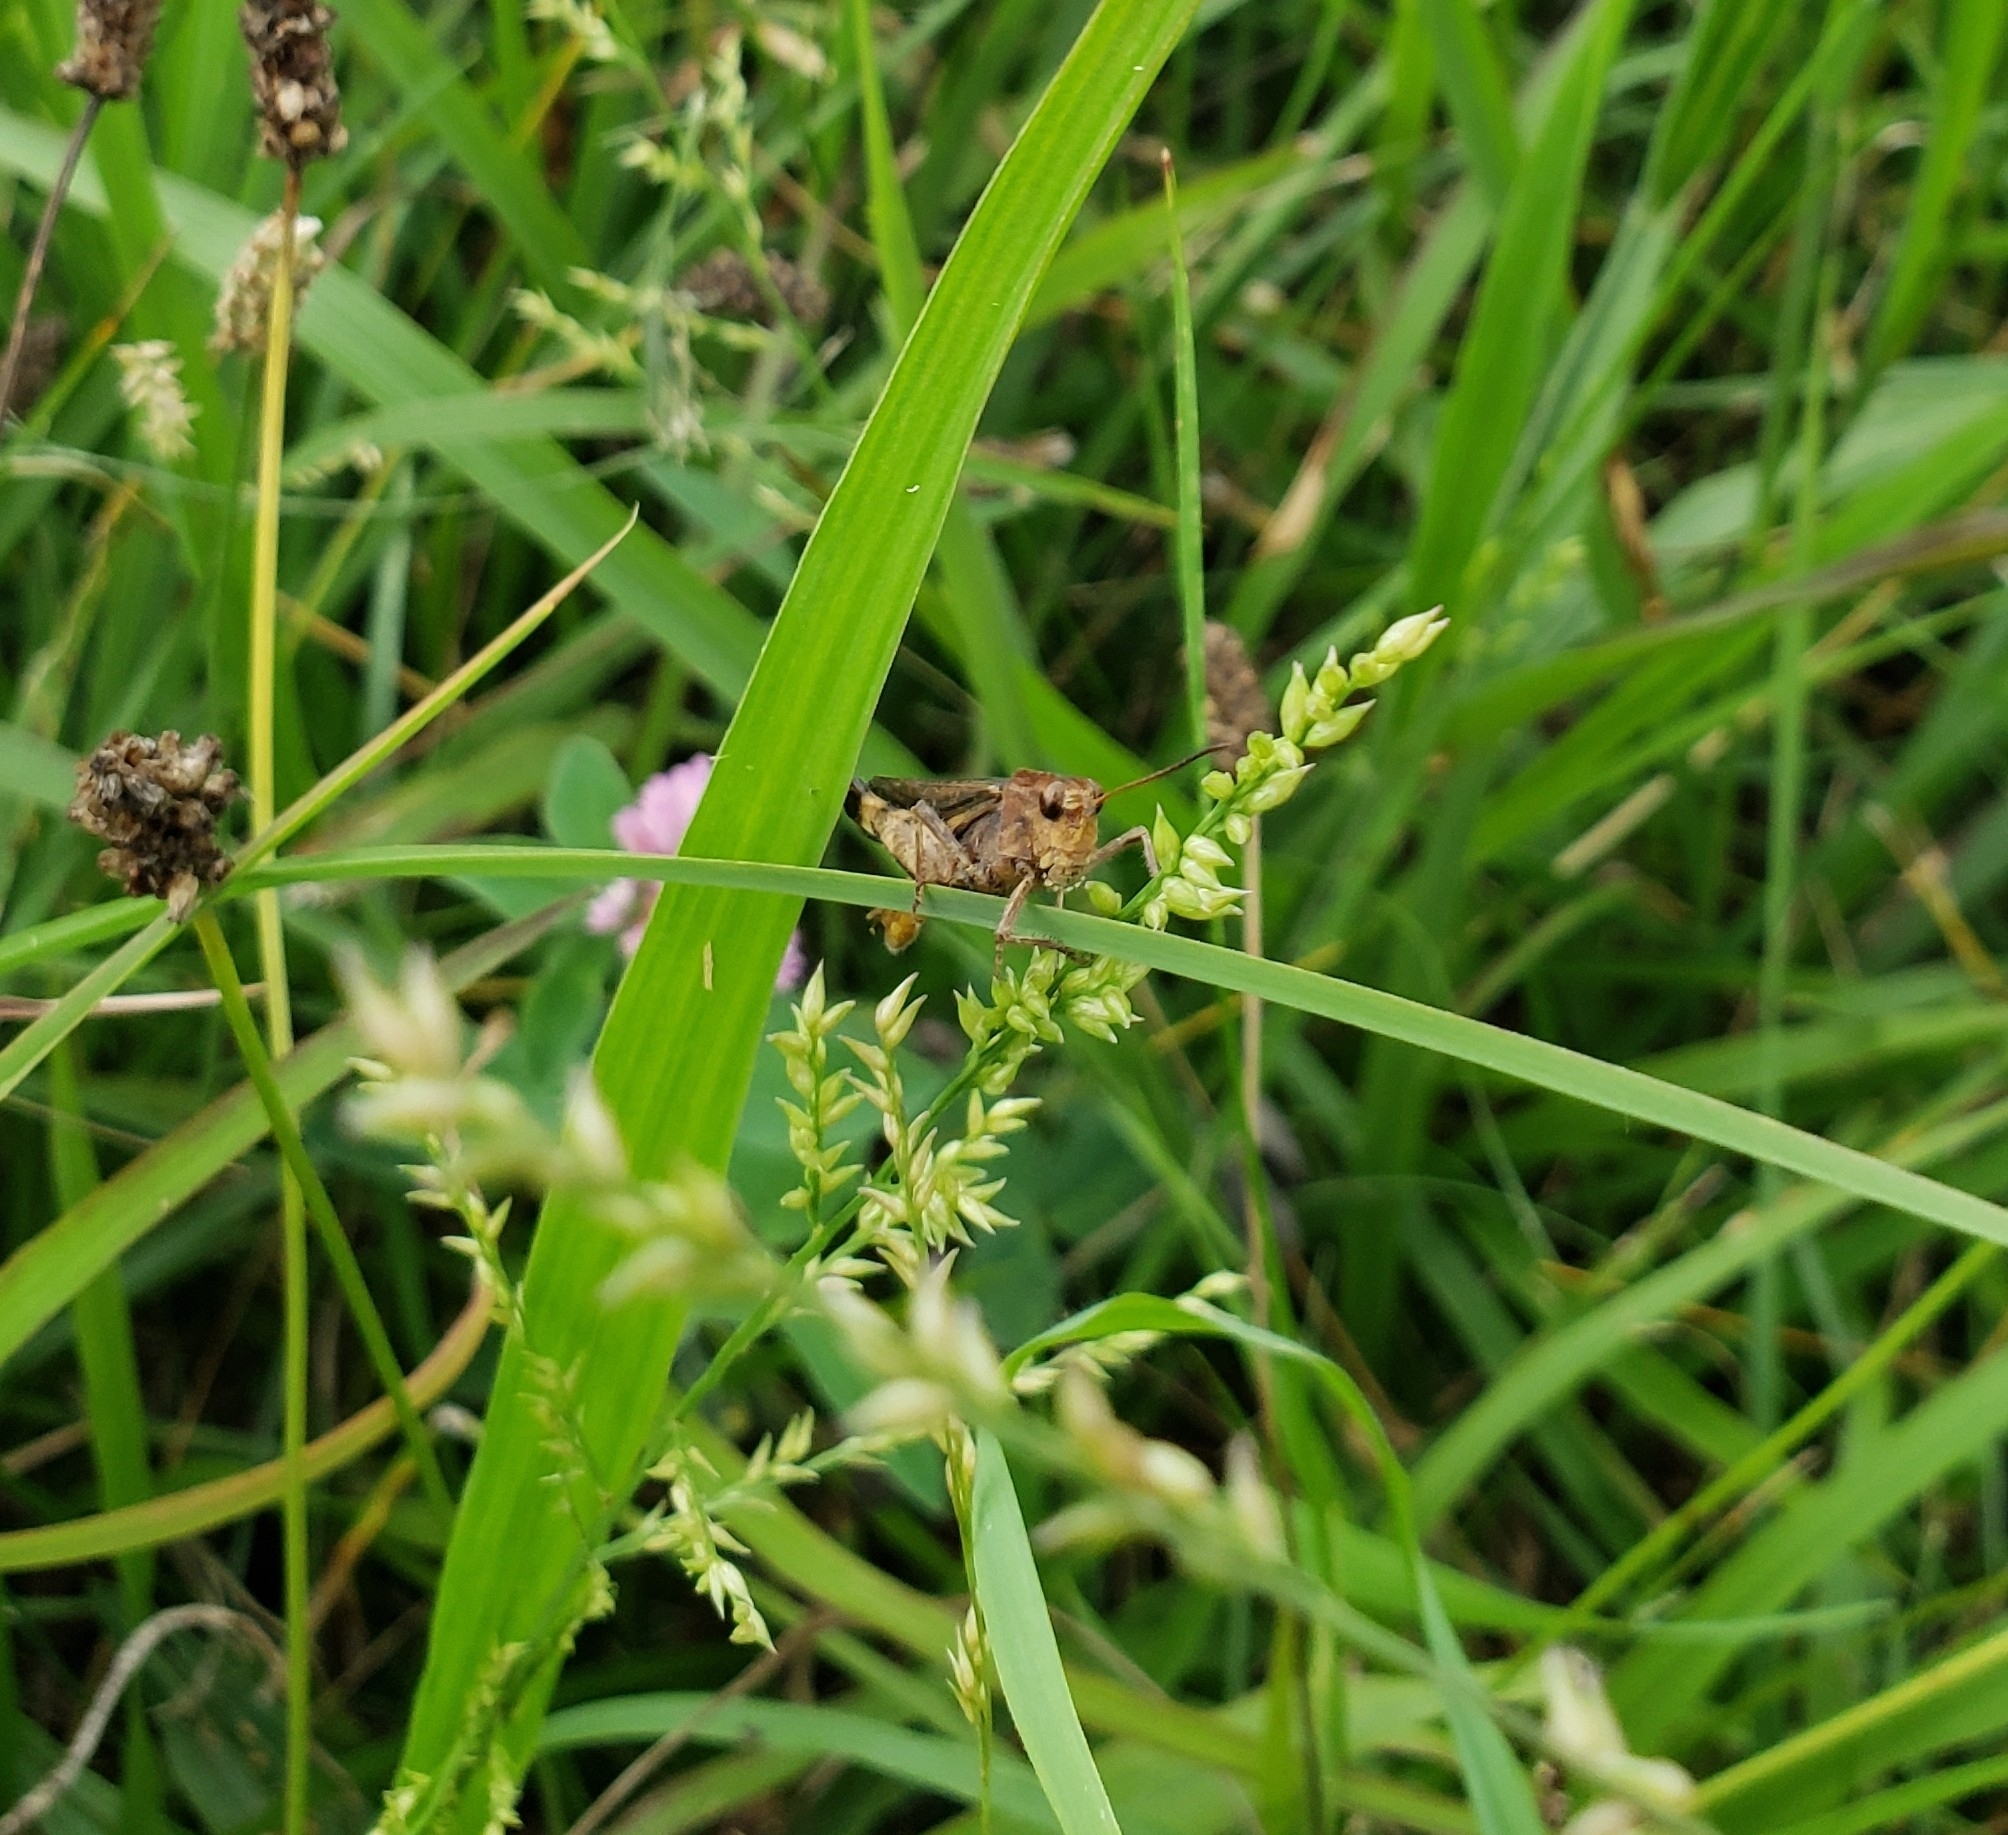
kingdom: Animalia
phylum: Arthropoda
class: Insecta
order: Orthoptera
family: Acrididae
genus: Chortophaga
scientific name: Chortophaga viridifasciata
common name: Green-striped grasshopper
